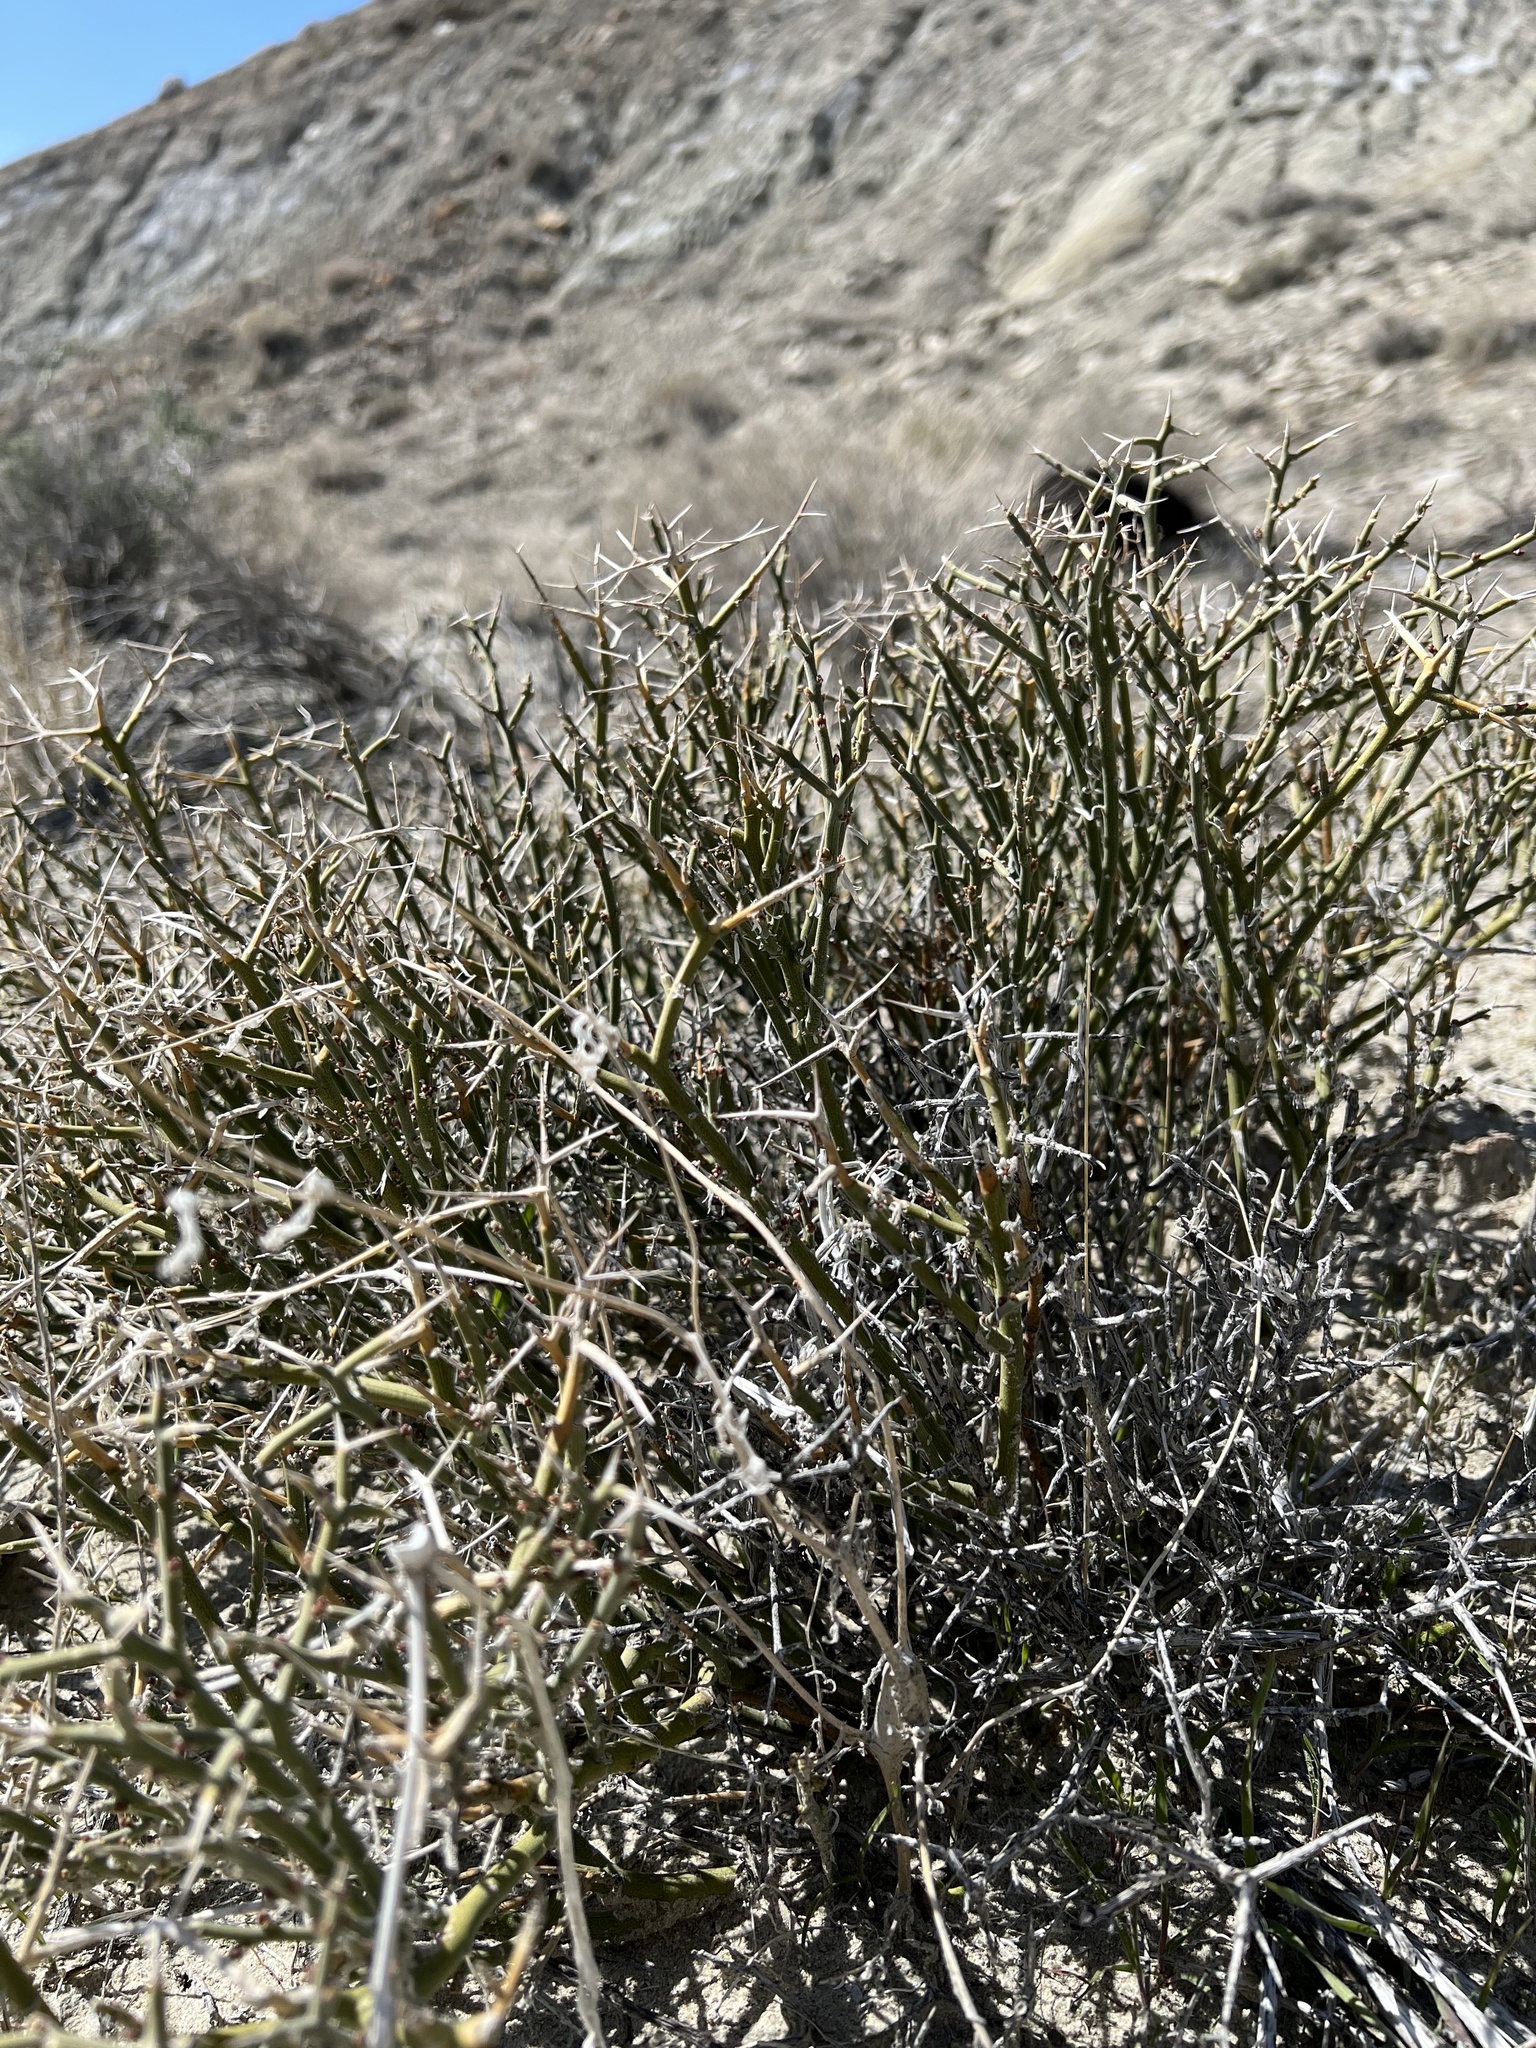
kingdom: Plantae
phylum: Tracheophyta
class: Magnoliopsida
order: Lamiales
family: Oleaceae
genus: Menodora
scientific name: Menodora spinescens
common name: Spiny menodora
